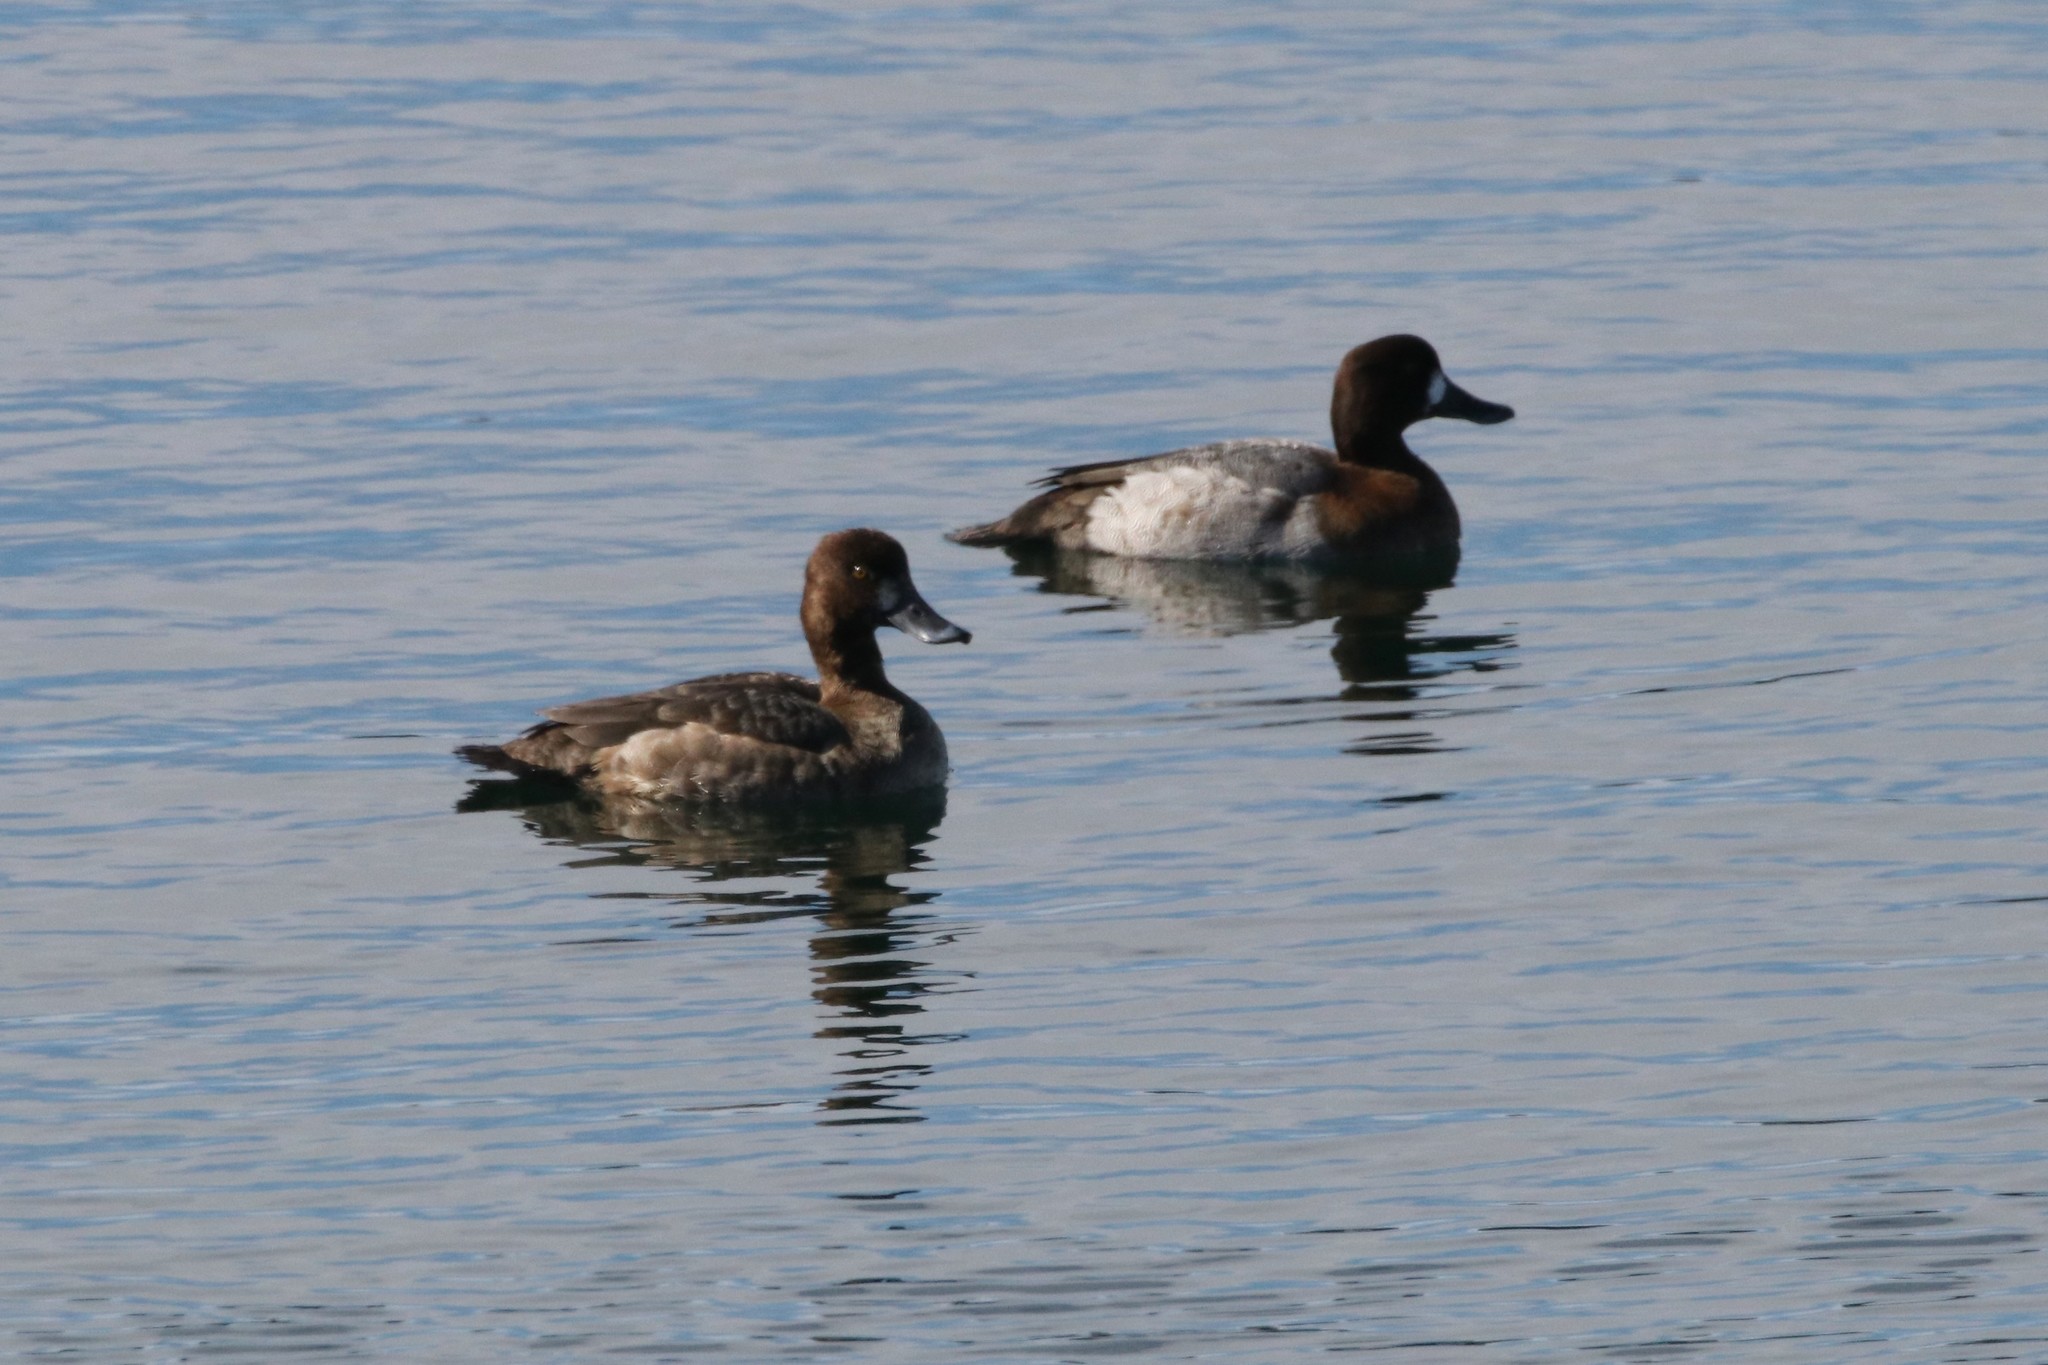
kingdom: Animalia
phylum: Chordata
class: Aves
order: Anseriformes
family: Anatidae
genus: Aythya
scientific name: Aythya marila
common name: Greater scaup
